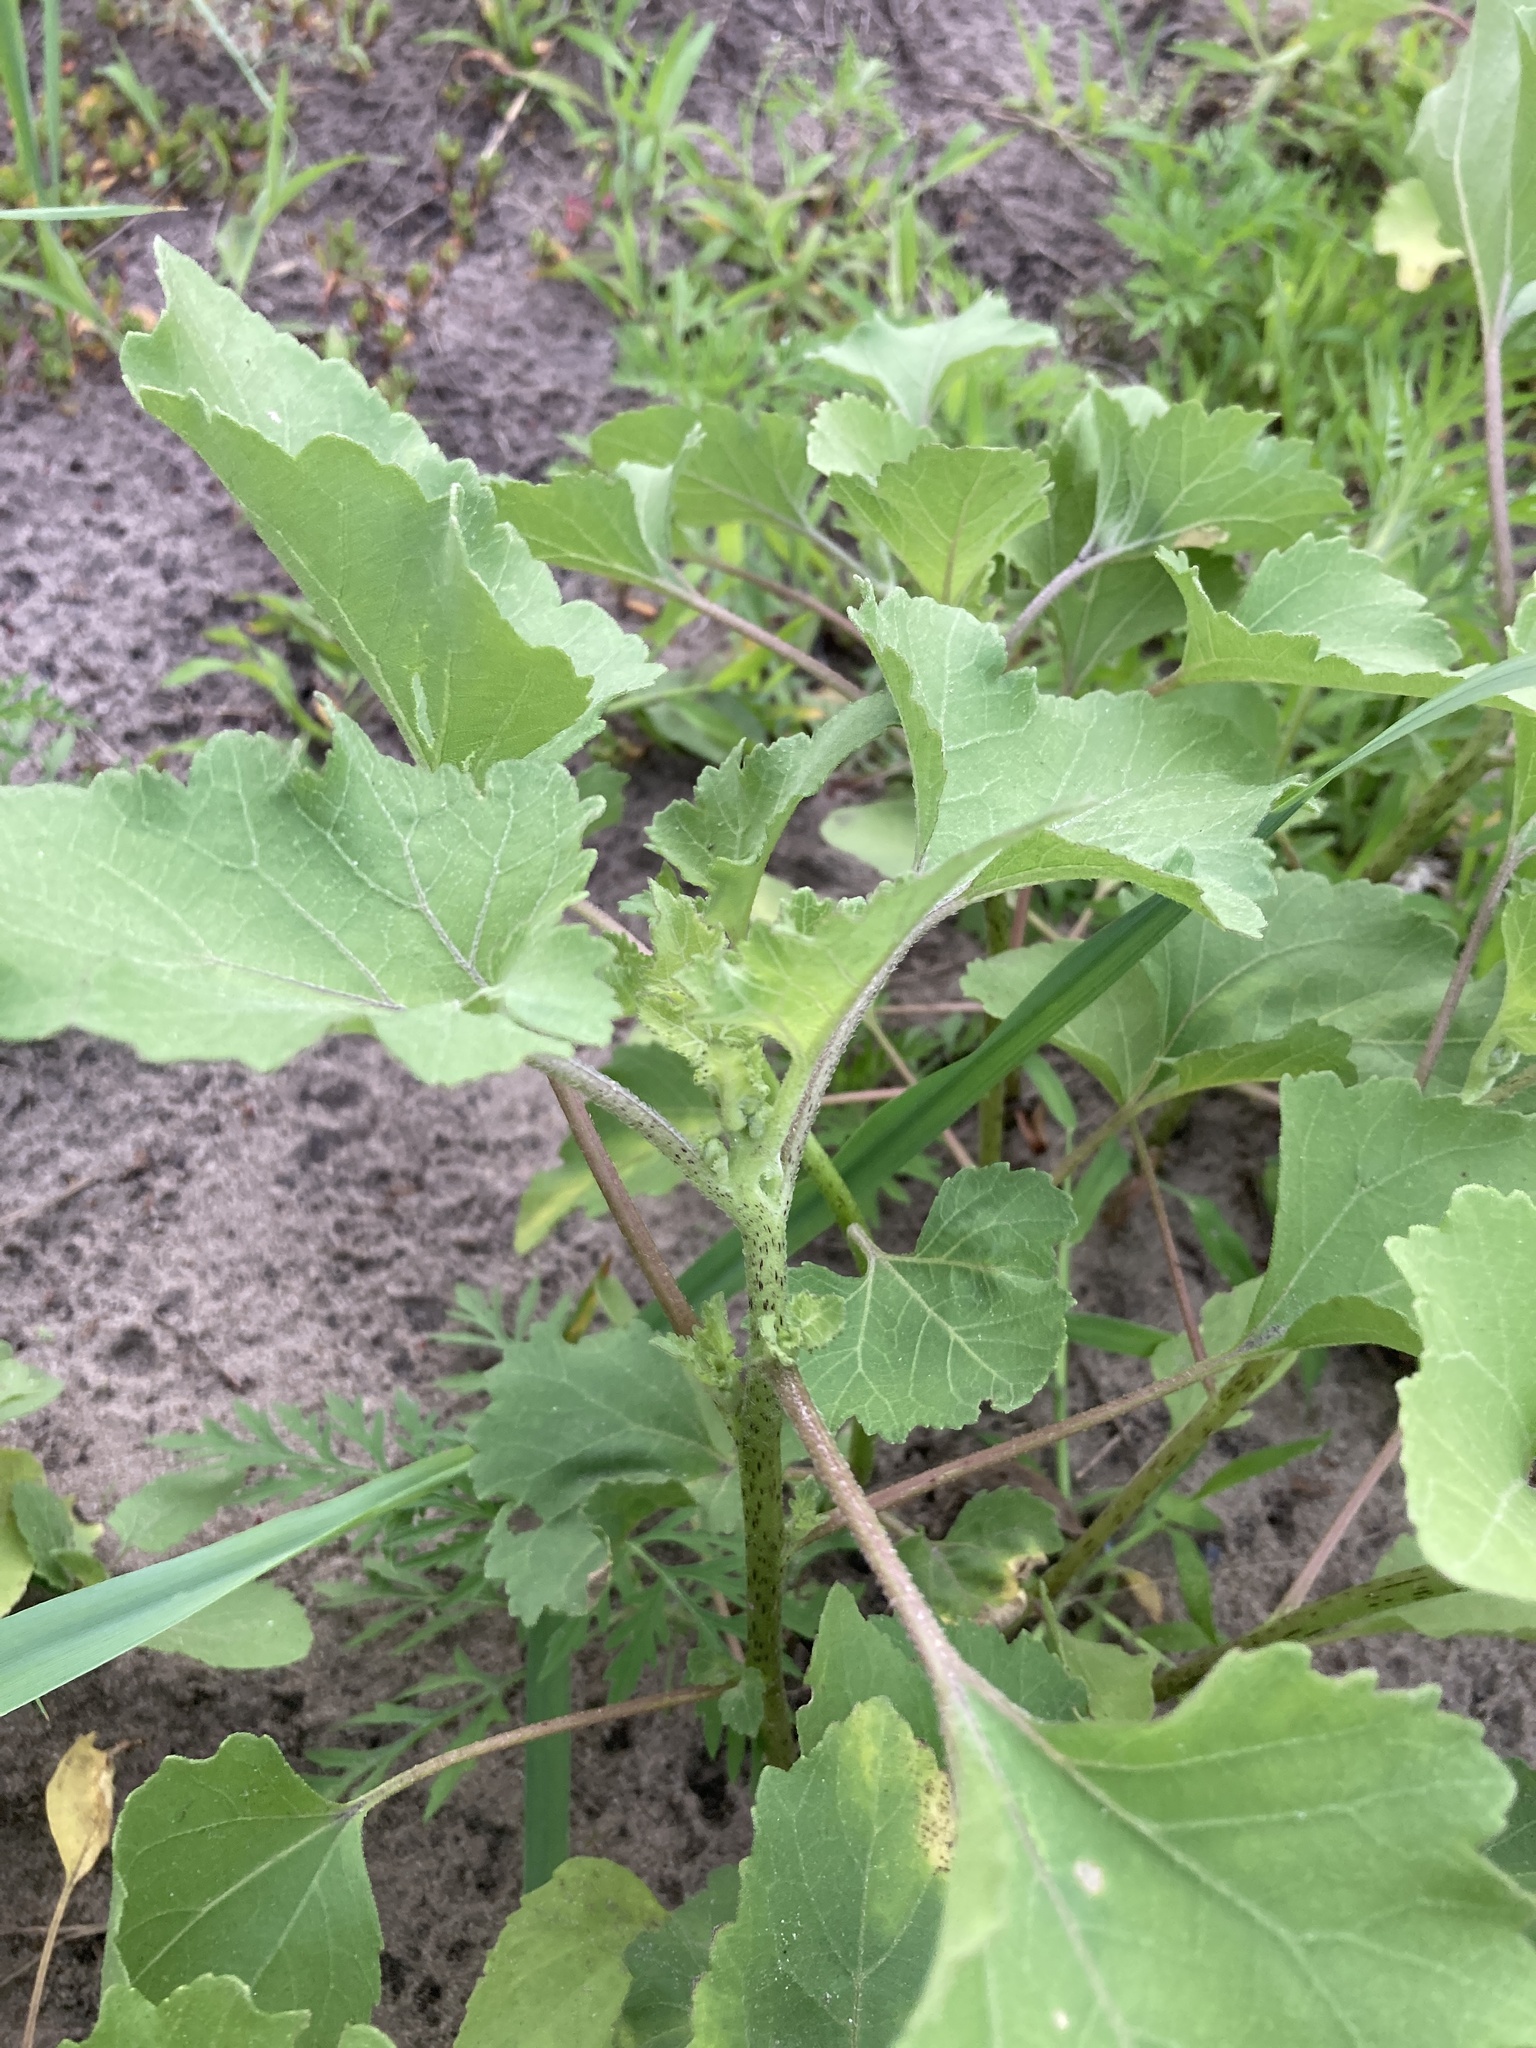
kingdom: Plantae
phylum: Tracheophyta
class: Magnoliopsida
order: Asterales
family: Asteraceae
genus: Xanthium
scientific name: Xanthium orientale
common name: Californian burr
